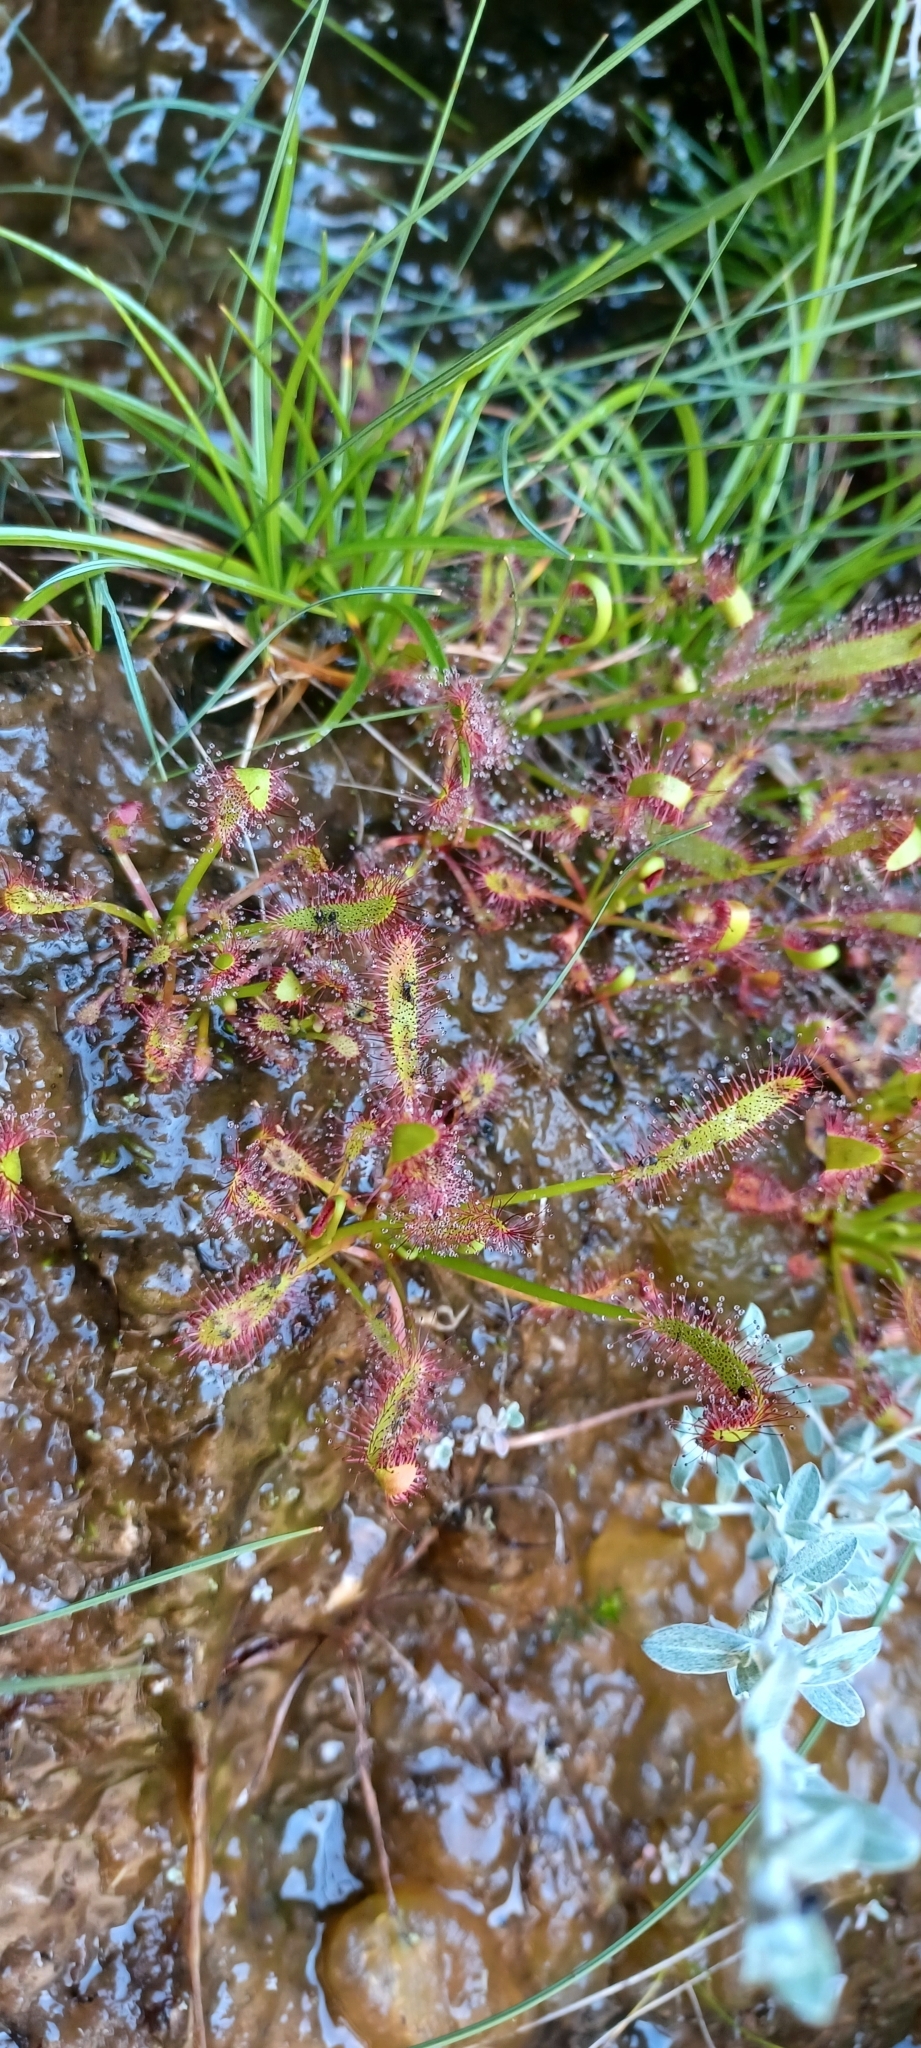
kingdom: Plantae
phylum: Tracheophyta
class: Magnoliopsida
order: Caryophyllales
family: Droseraceae
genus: Drosera
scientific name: Drosera capensis
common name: Cape sundew
